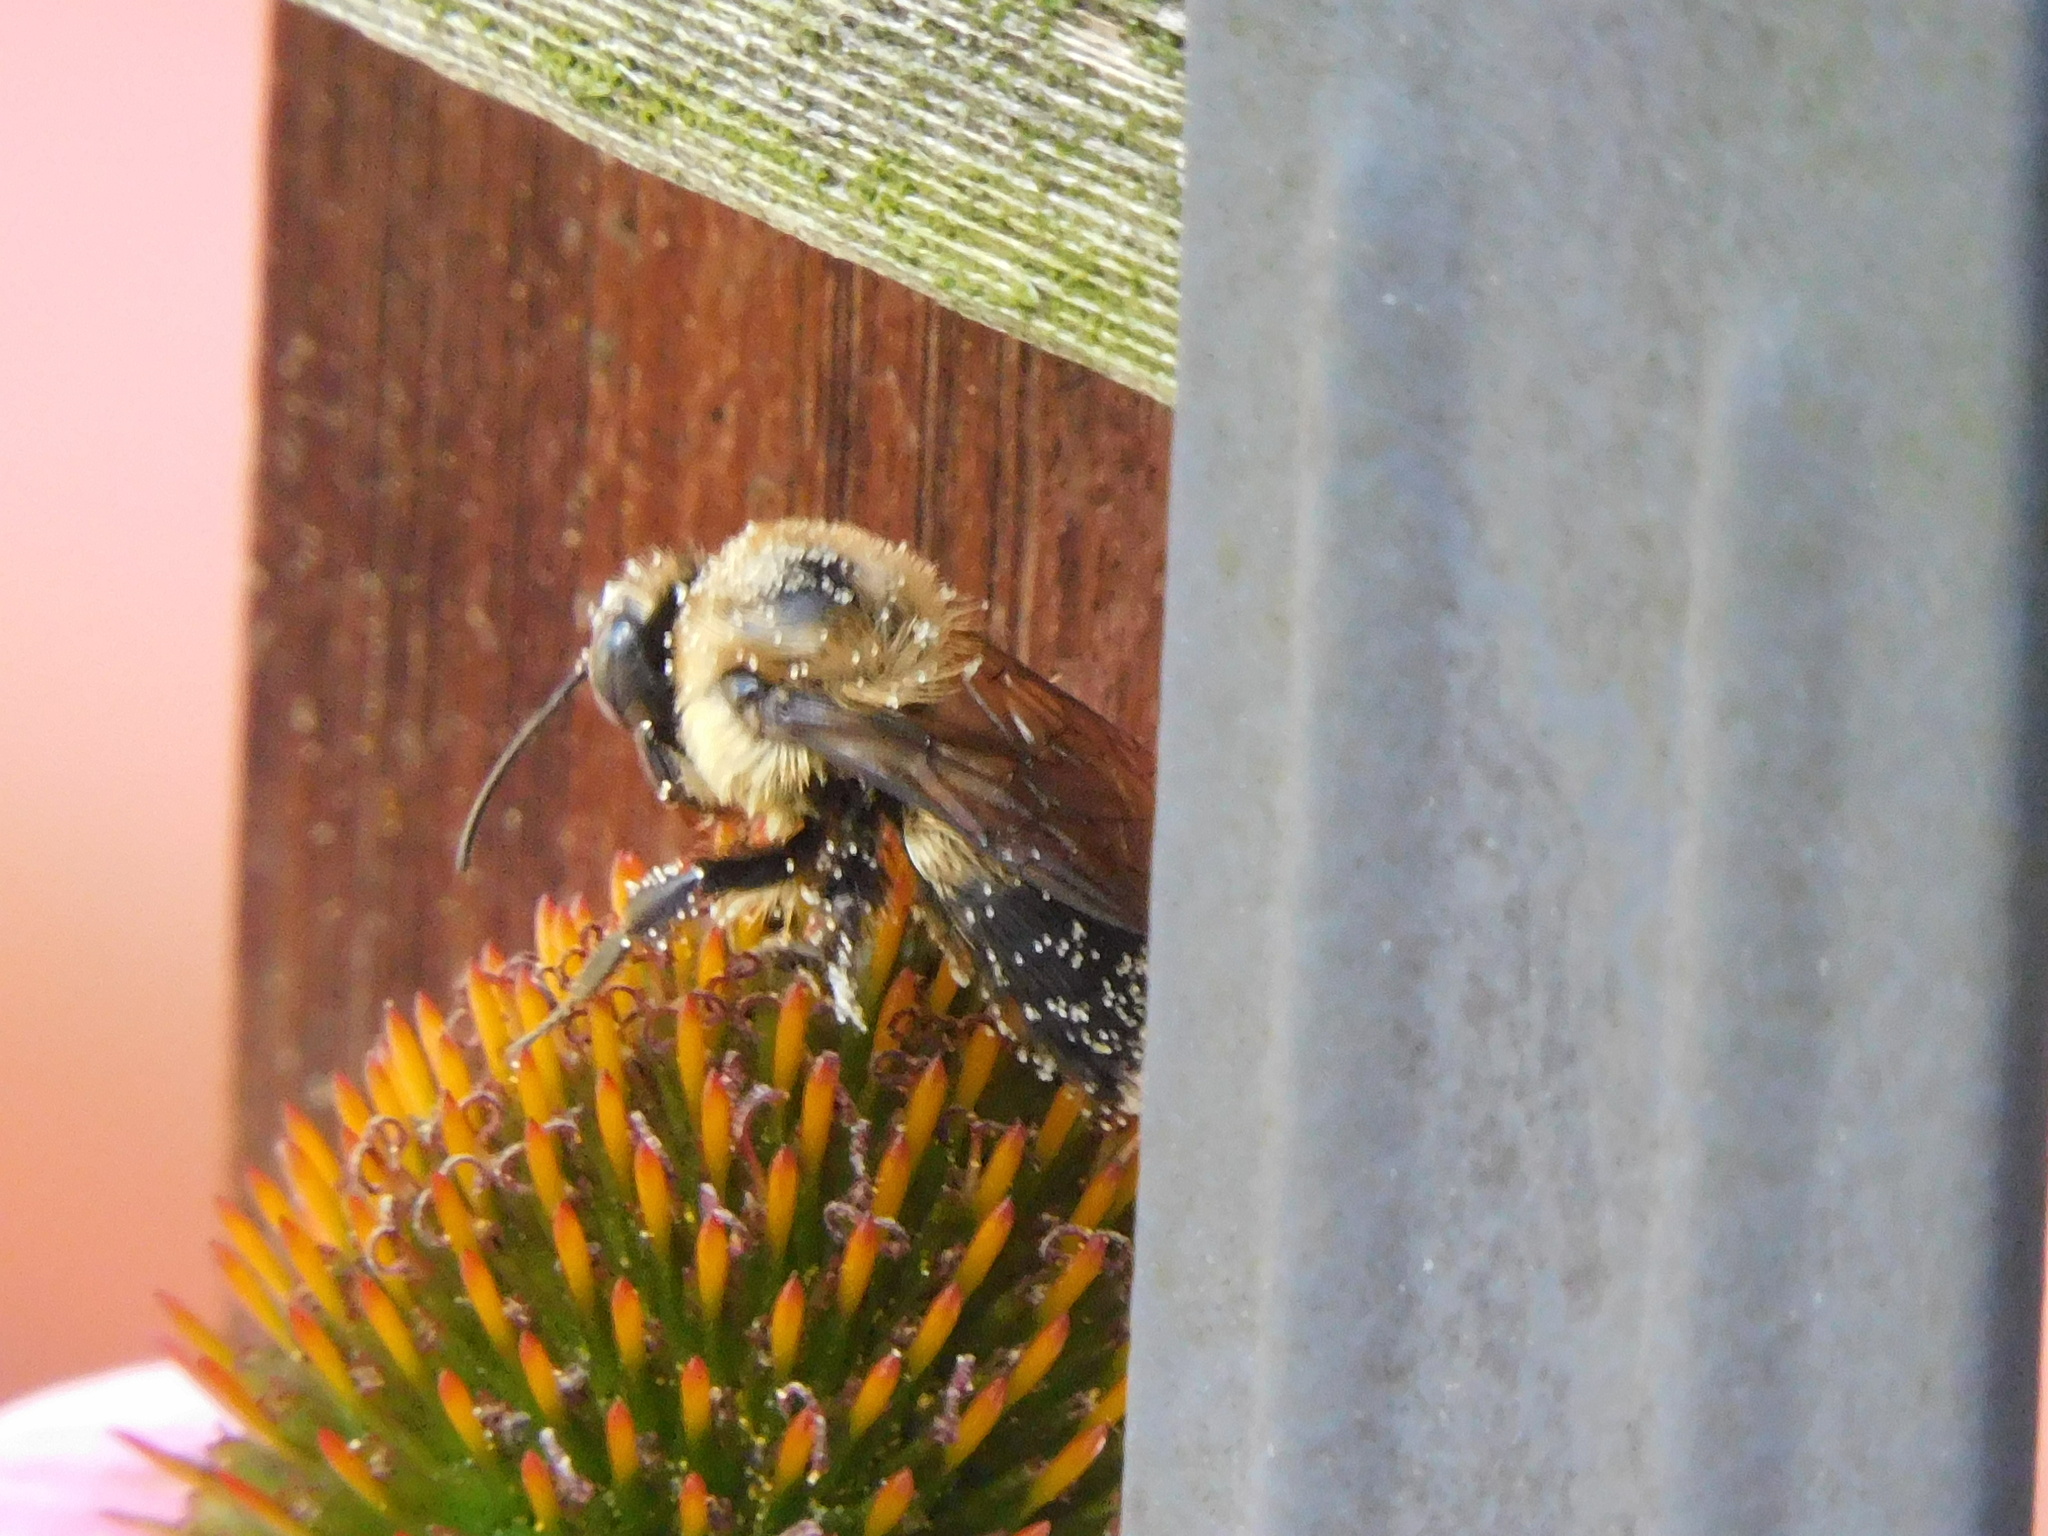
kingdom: Animalia
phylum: Arthropoda
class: Insecta
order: Hymenoptera
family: Apidae
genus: Bombus
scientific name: Bombus griseocollis
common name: Brown-belted bumble bee
